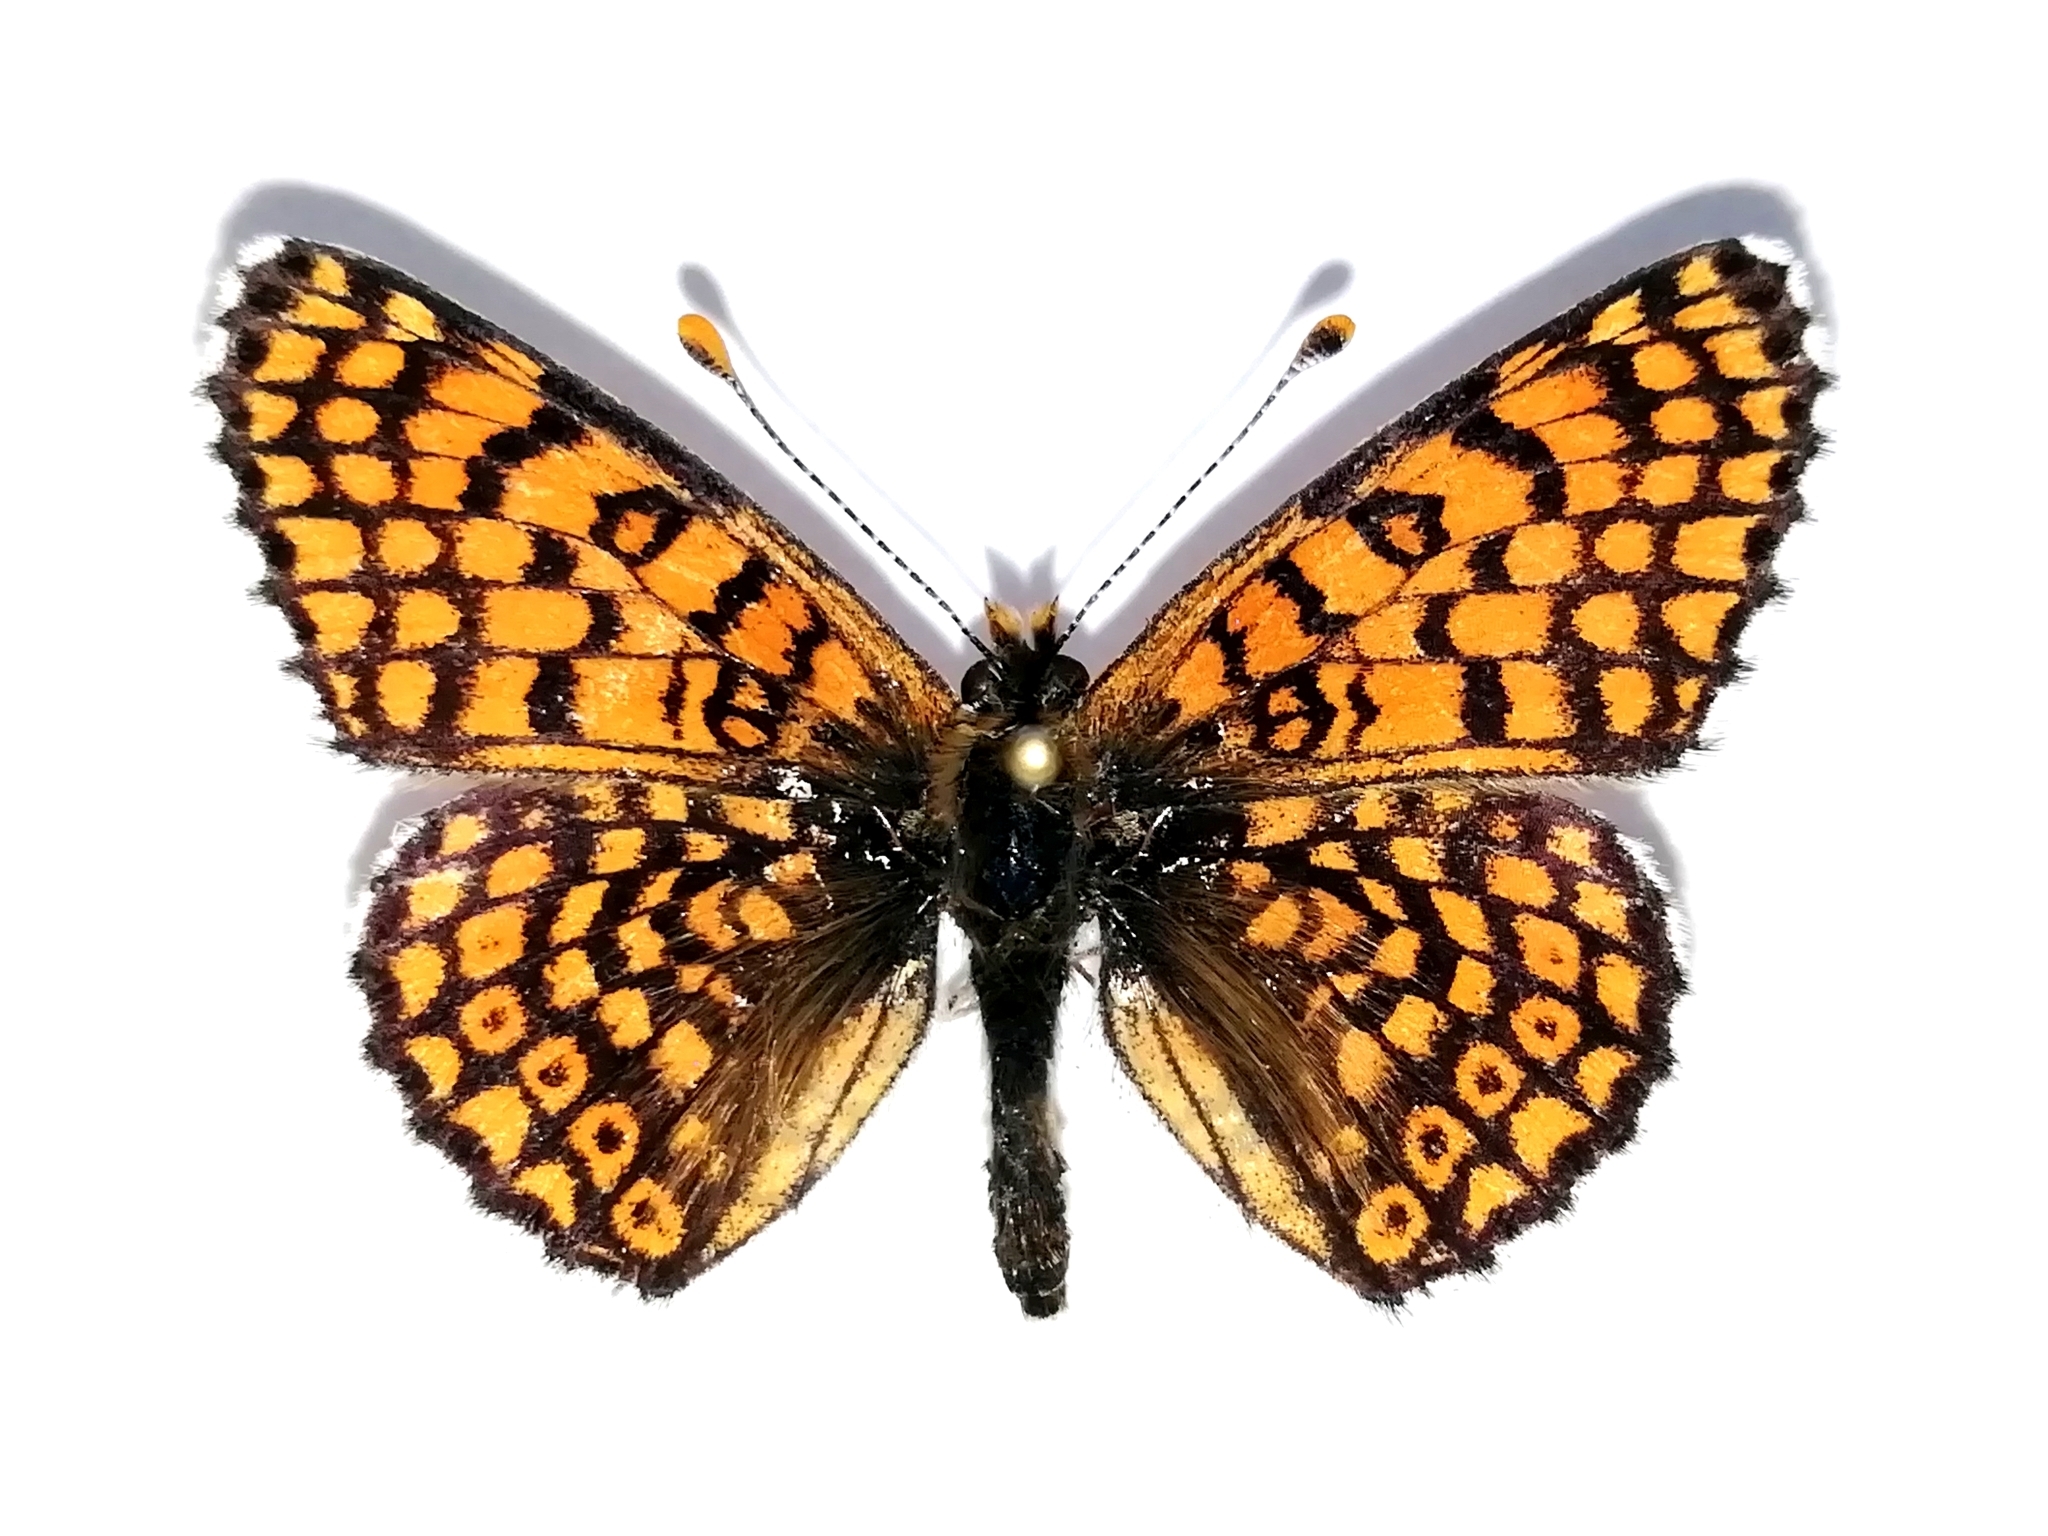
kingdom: Animalia
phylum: Arthropoda
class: Insecta
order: Lepidoptera
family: Nymphalidae
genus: Melitaea
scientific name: Melitaea cinxia
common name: Glanville fritillary
